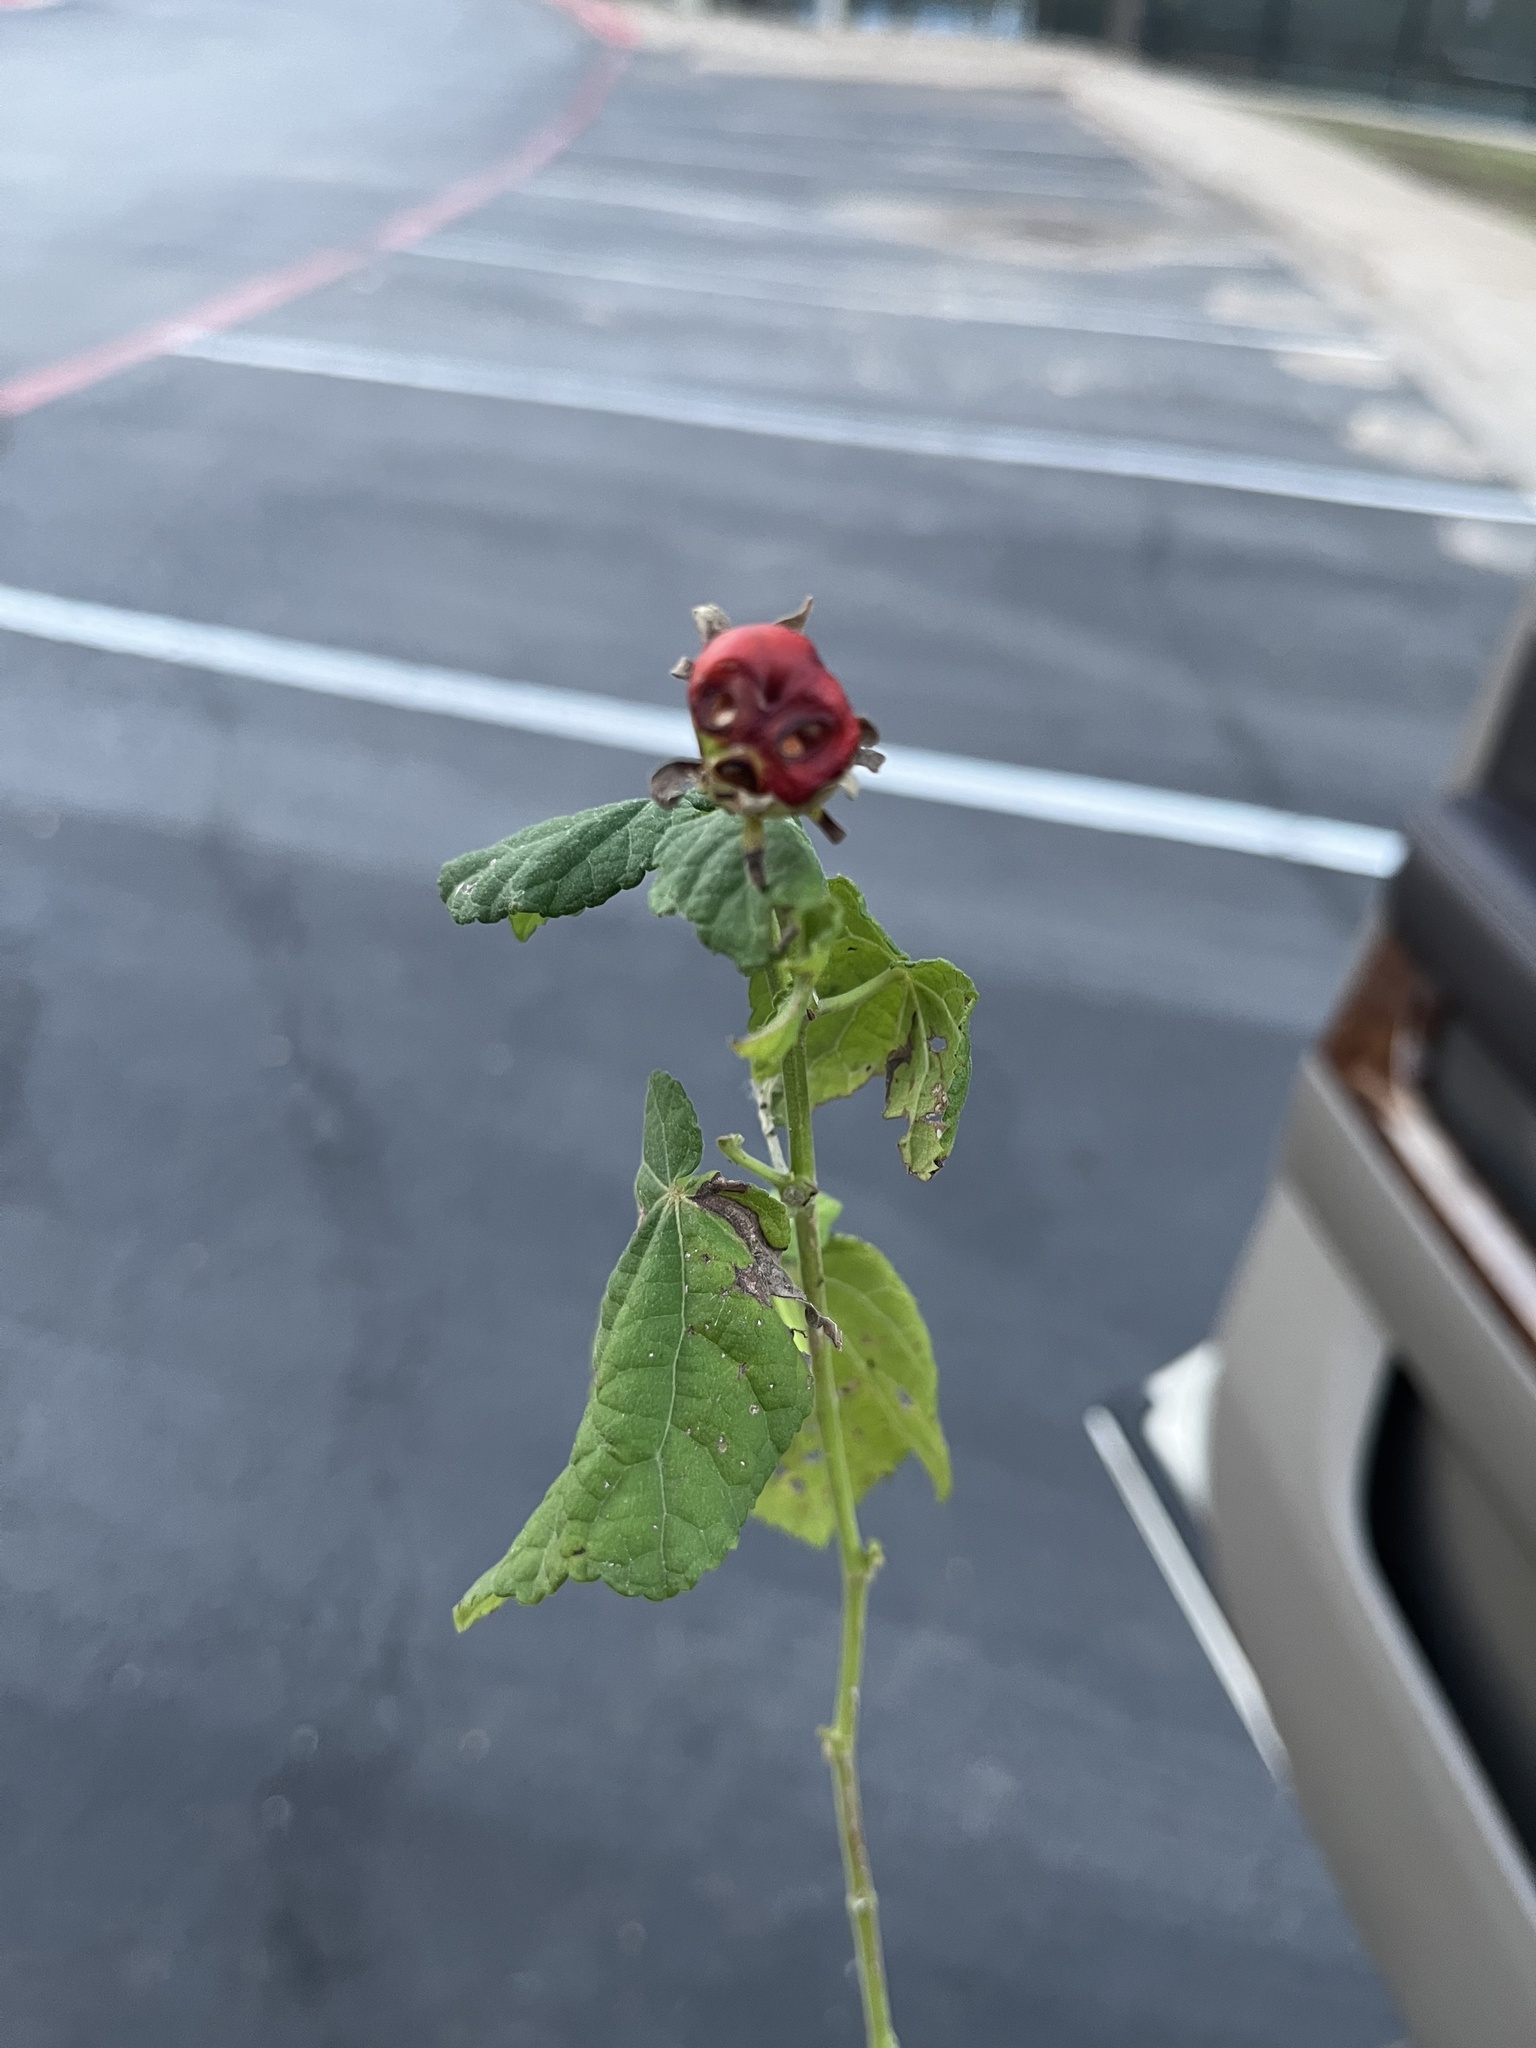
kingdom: Plantae
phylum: Tracheophyta
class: Magnoliopsida
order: Malvales
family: Malvaceae
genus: Malvaviscus
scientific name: Malvaviscus arboreus
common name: Wax mallow
